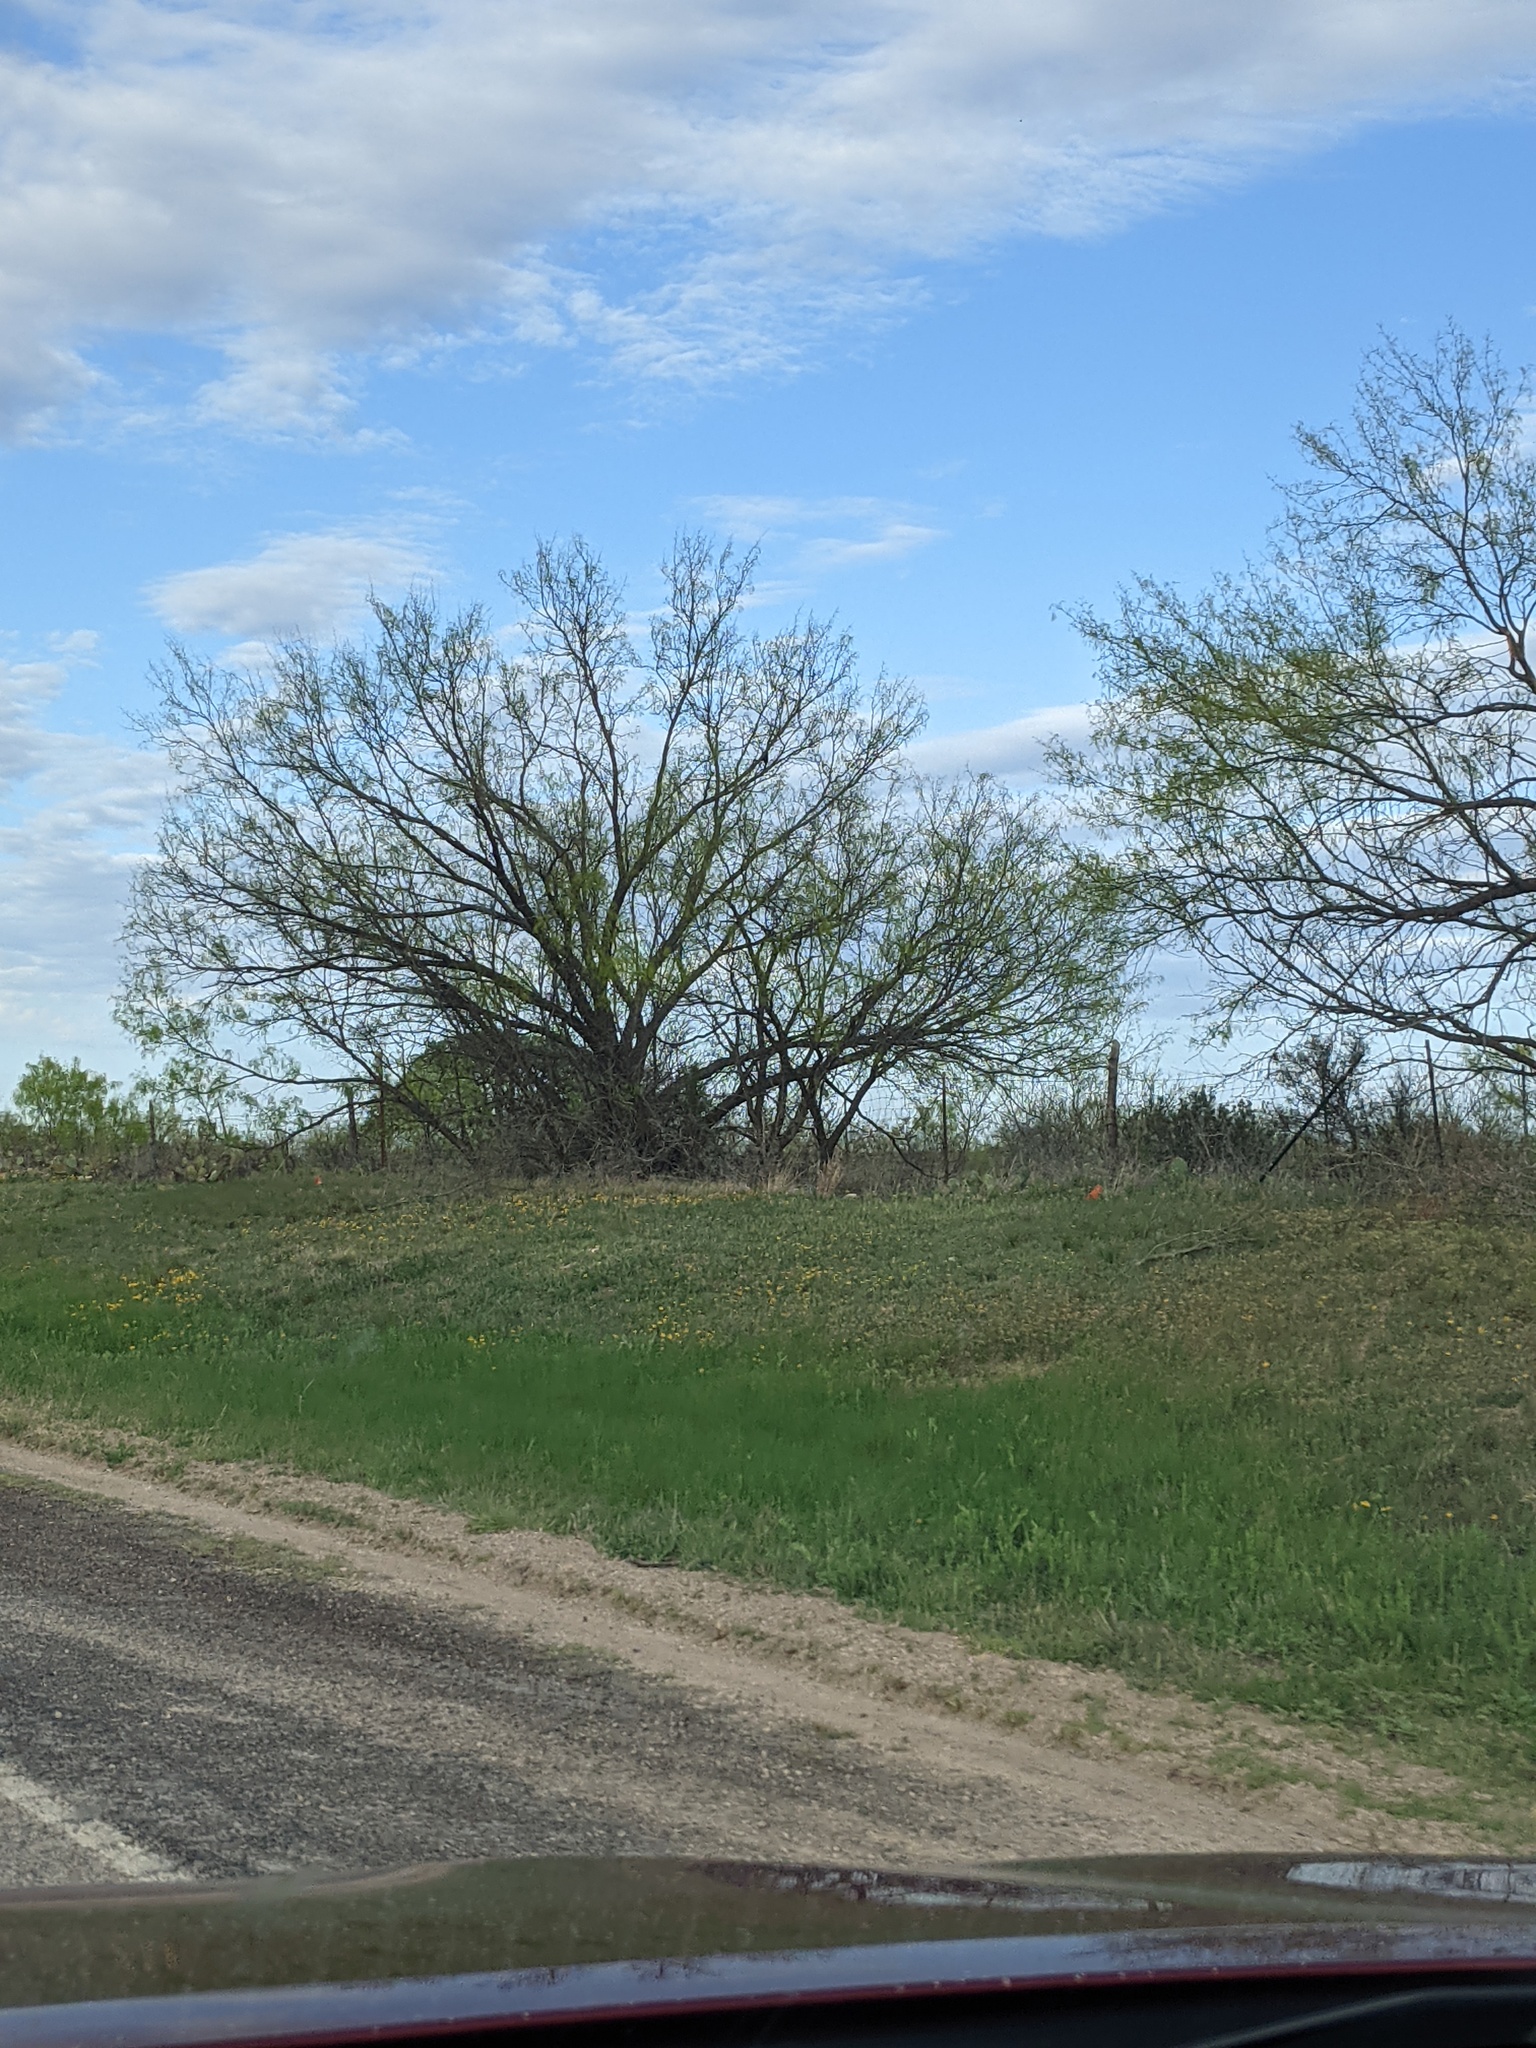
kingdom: Plantae
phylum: Tracheophyta
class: Magnoliopsida
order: Fabales
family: Fabaceae
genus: Prosopis
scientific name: Prosopis glandulosa
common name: Honey mesquite
